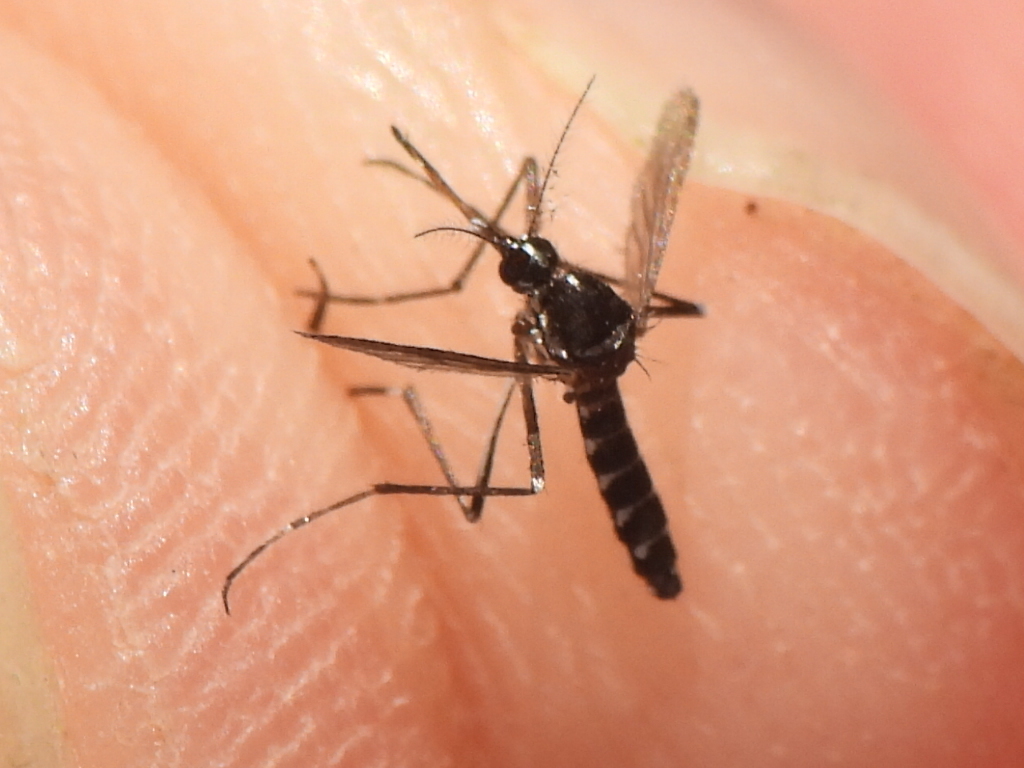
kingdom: Animalia
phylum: Arthropoda
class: Insecta
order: Diptera
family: Culicidae
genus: Aedes
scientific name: Aedes albopictus
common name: Tiger mosquito
